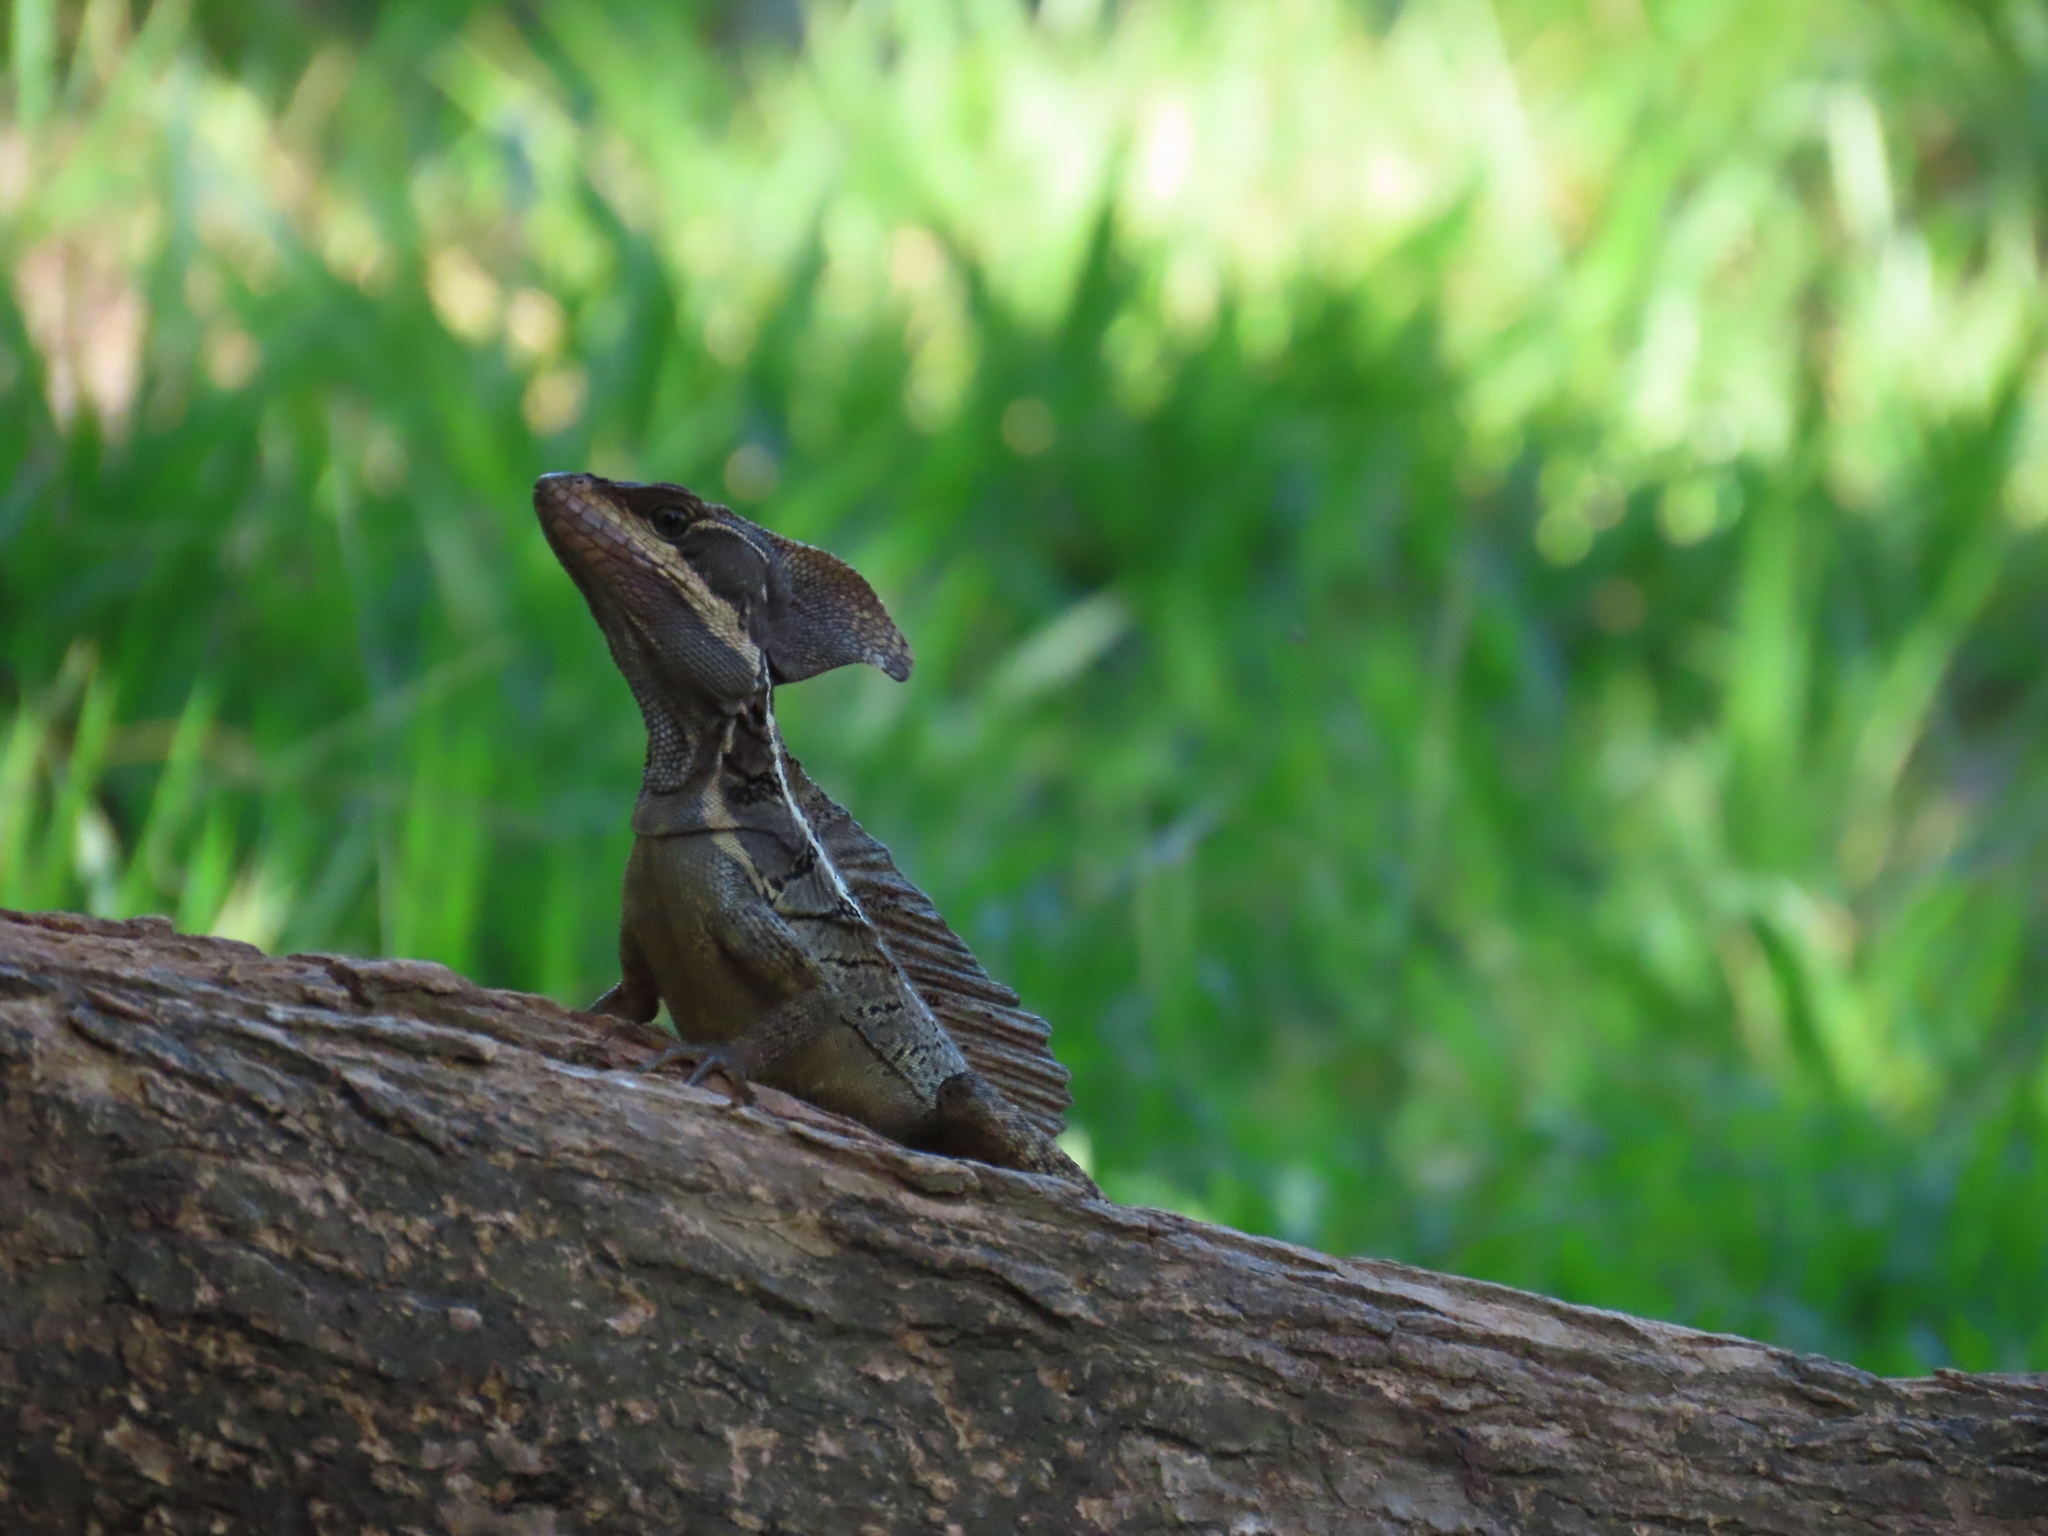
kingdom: Animalia
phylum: Chordata
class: Squamata
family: Corytophanidae
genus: Basiliscus
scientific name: Basiliscus basiliscus
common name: Common basilisk
